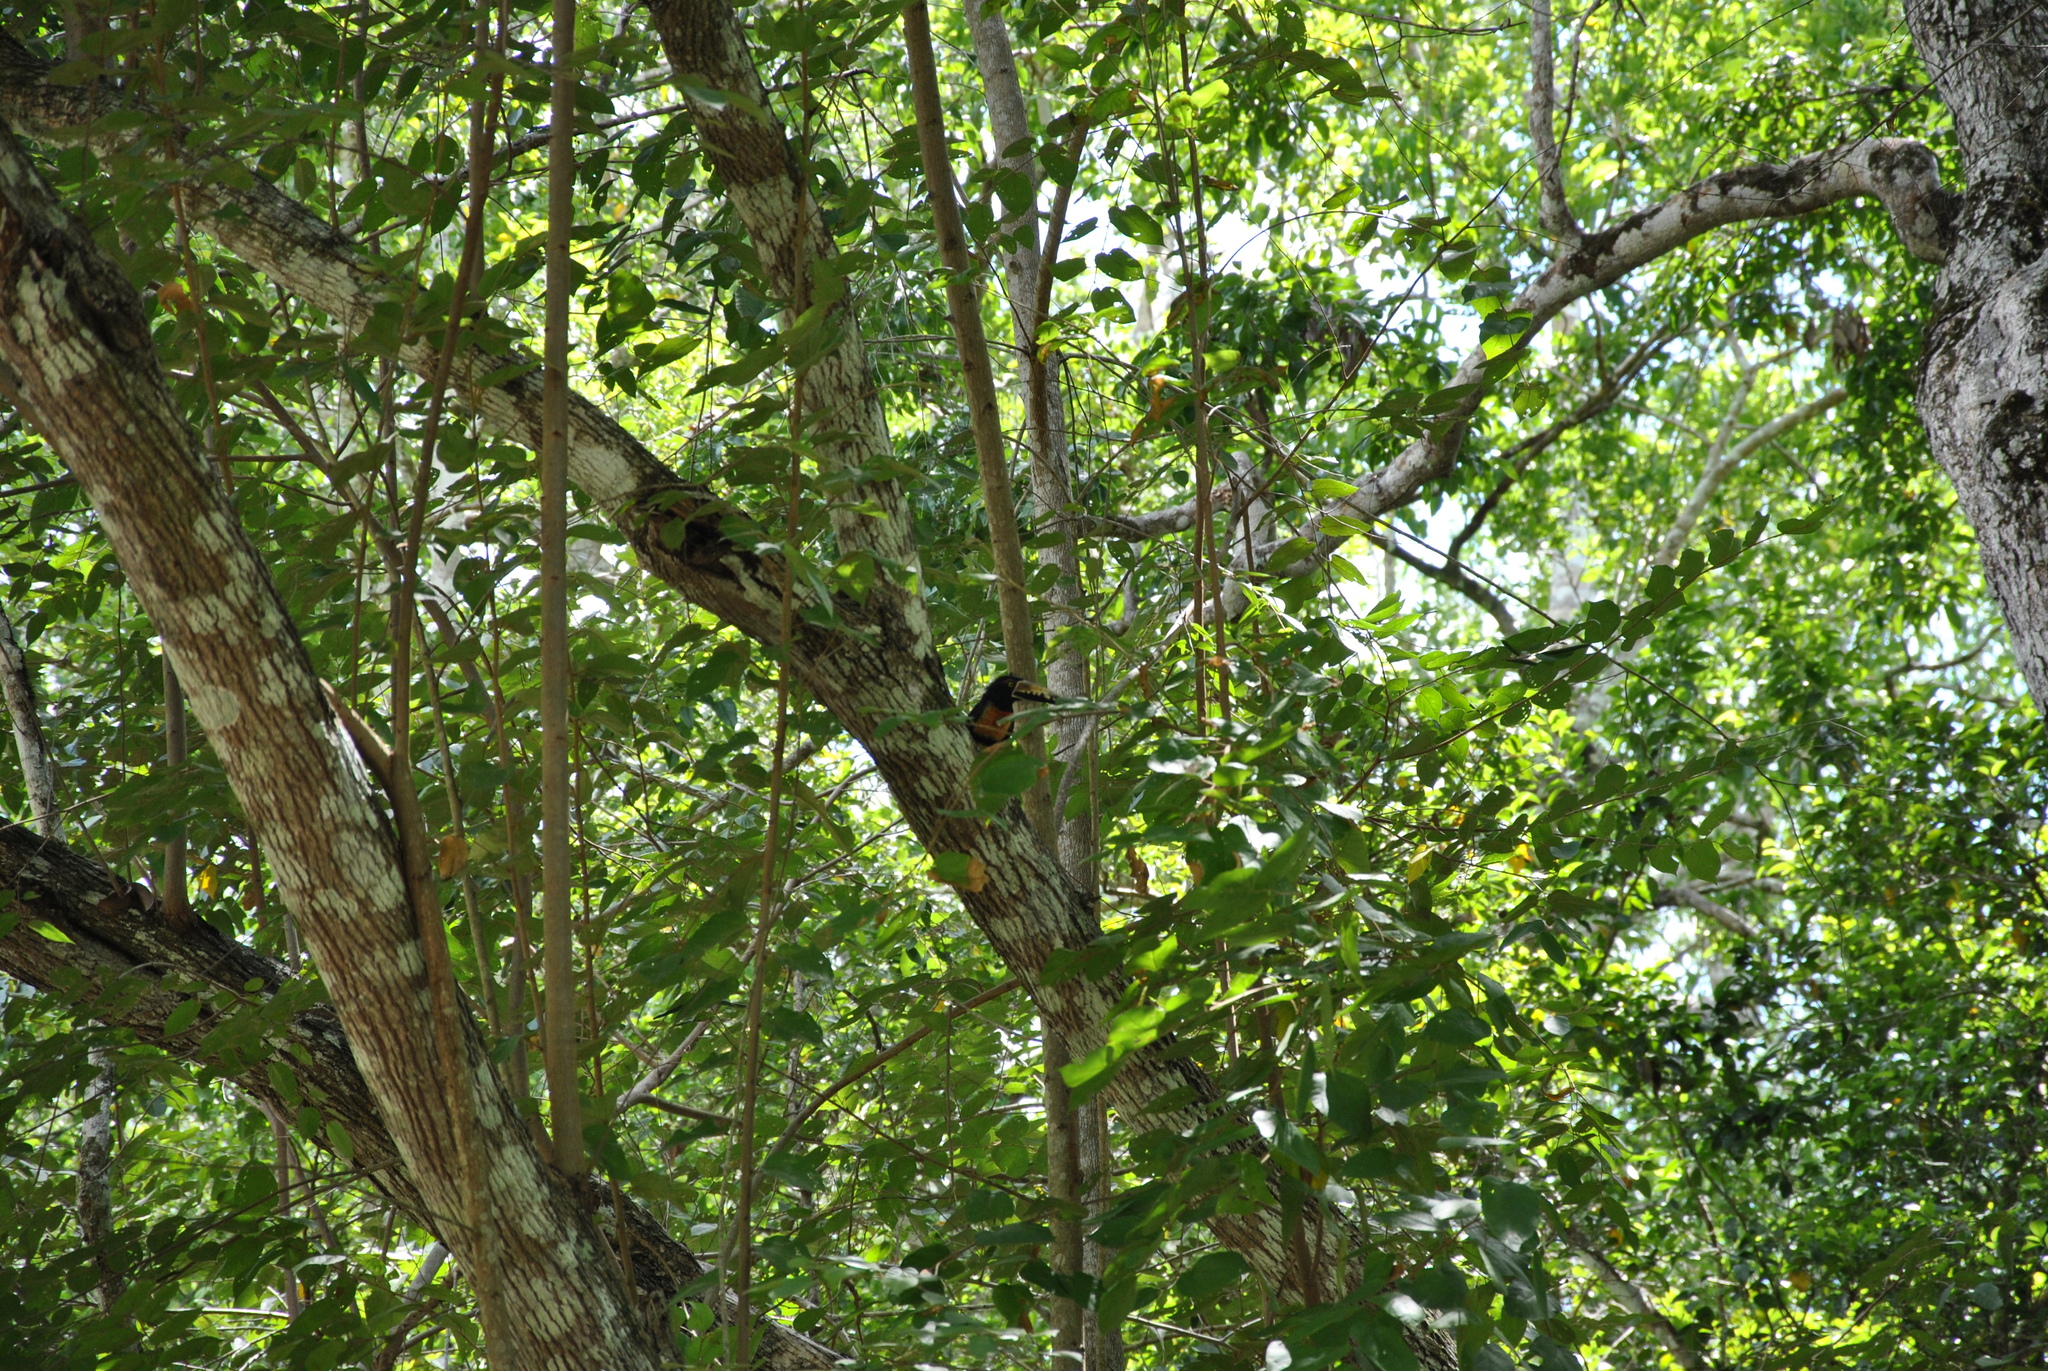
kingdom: Animalia
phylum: Chordata
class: Aves
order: Piciformes
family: Ramphastidae
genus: Pteroglossus
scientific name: Pteroglossus torquatus
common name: Collared aracari
